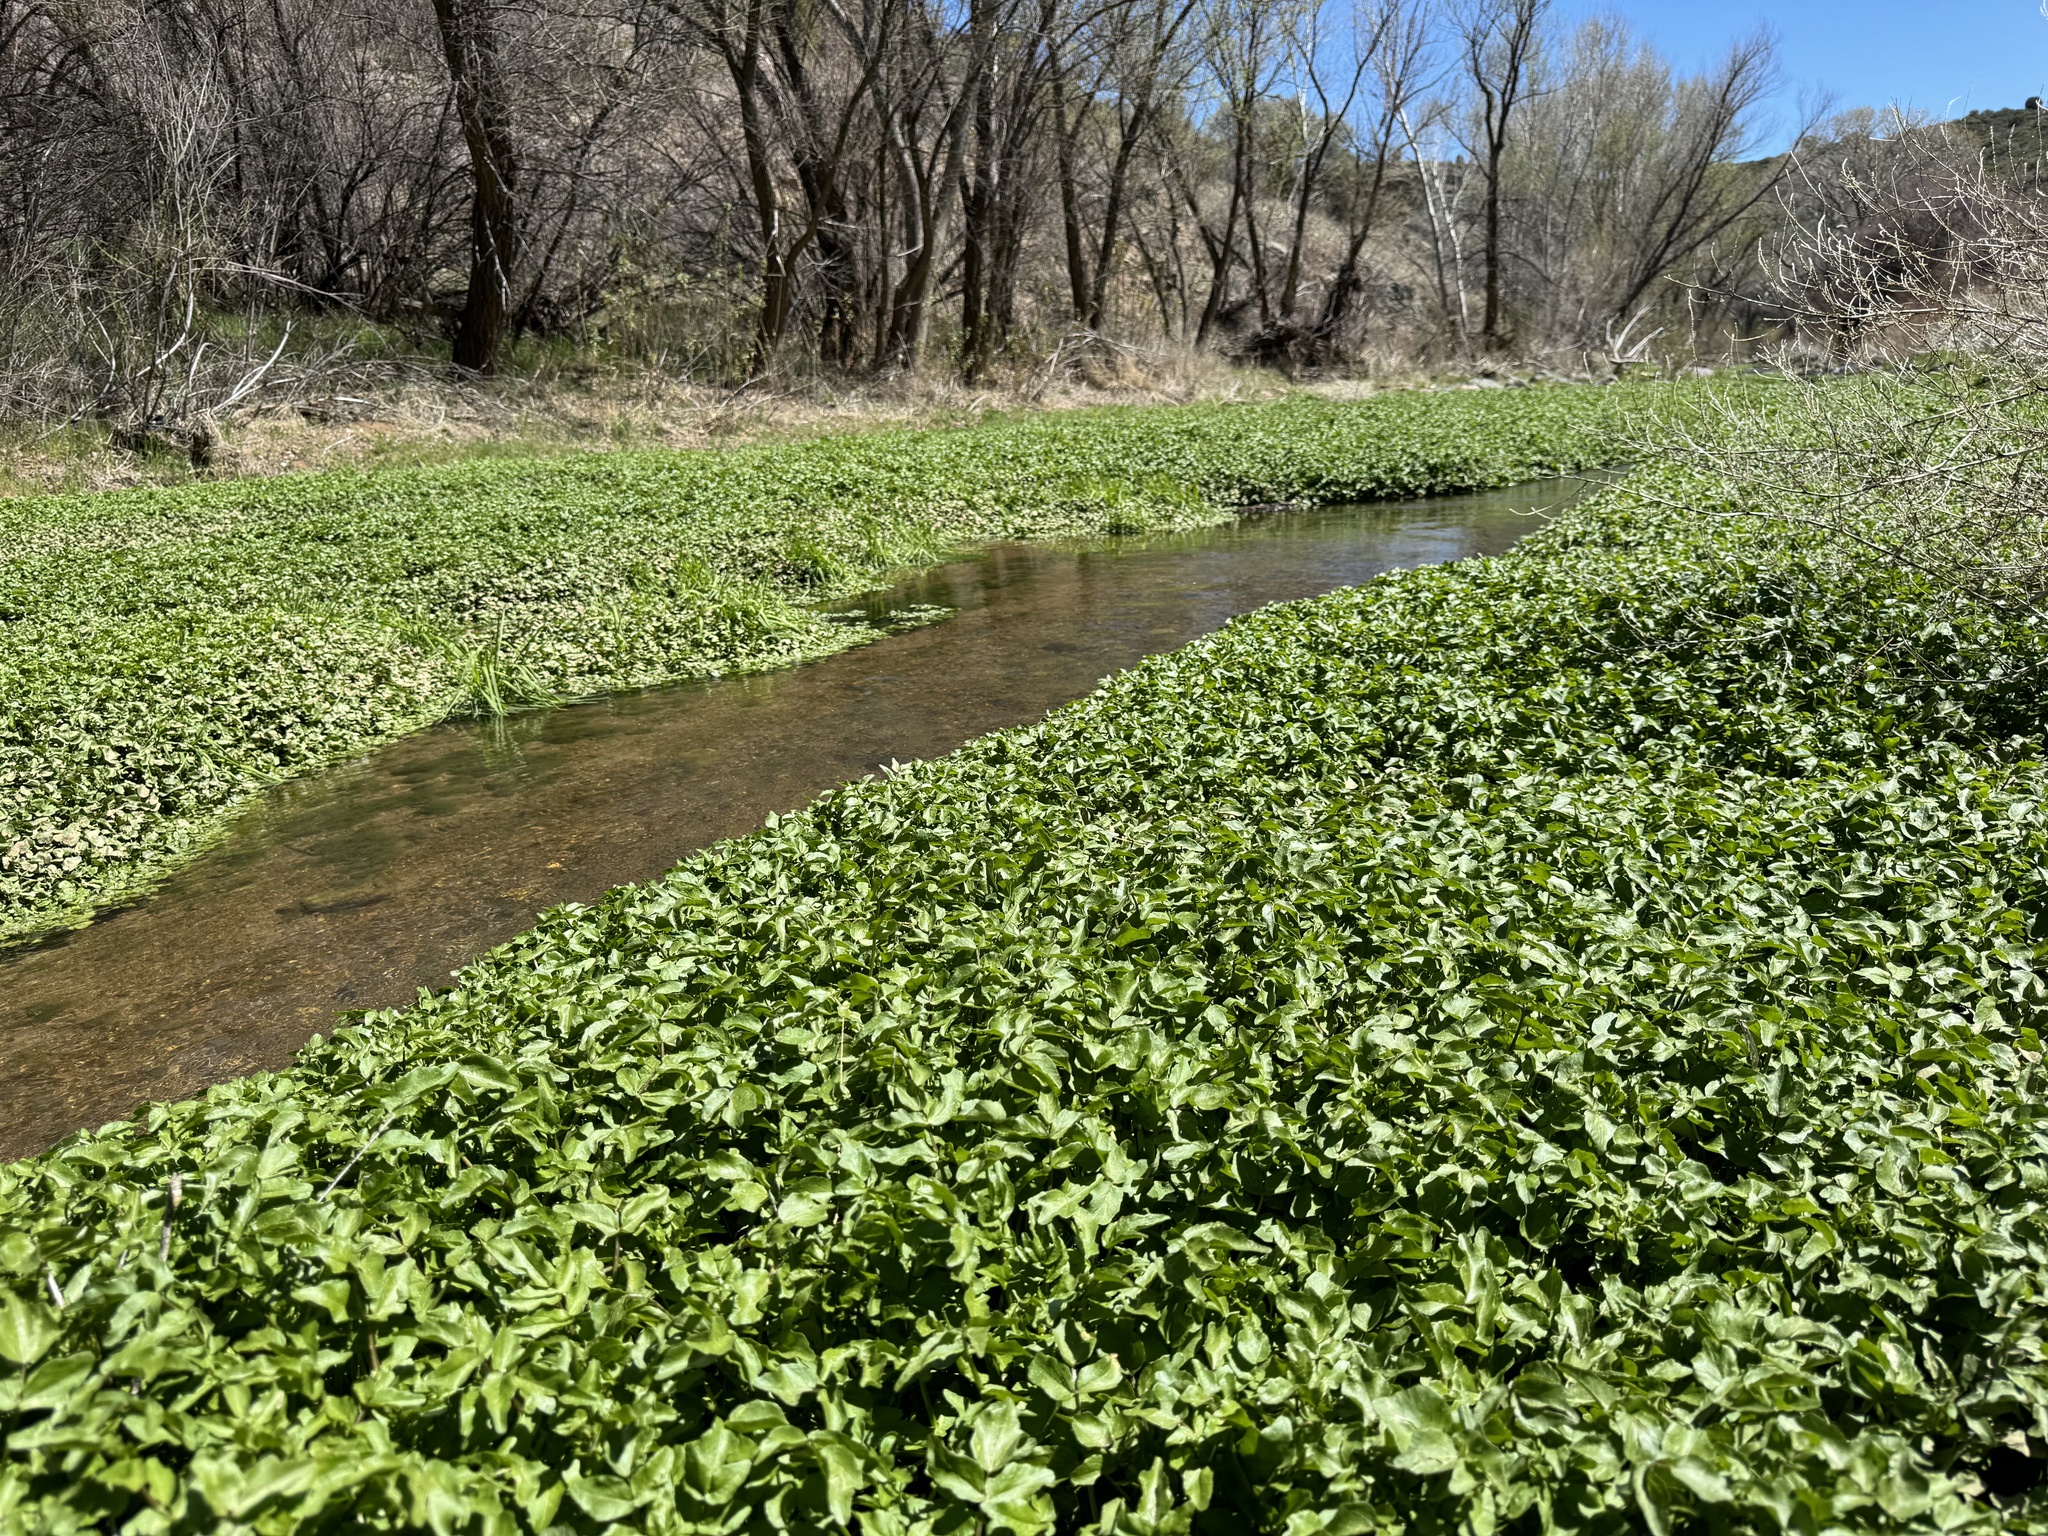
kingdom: Plantae
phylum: Tracheophyta
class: Magnoliopsida
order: Brassicales
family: Brassicaceae
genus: Nasturtium
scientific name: Nasturtium officinale
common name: Watercress
